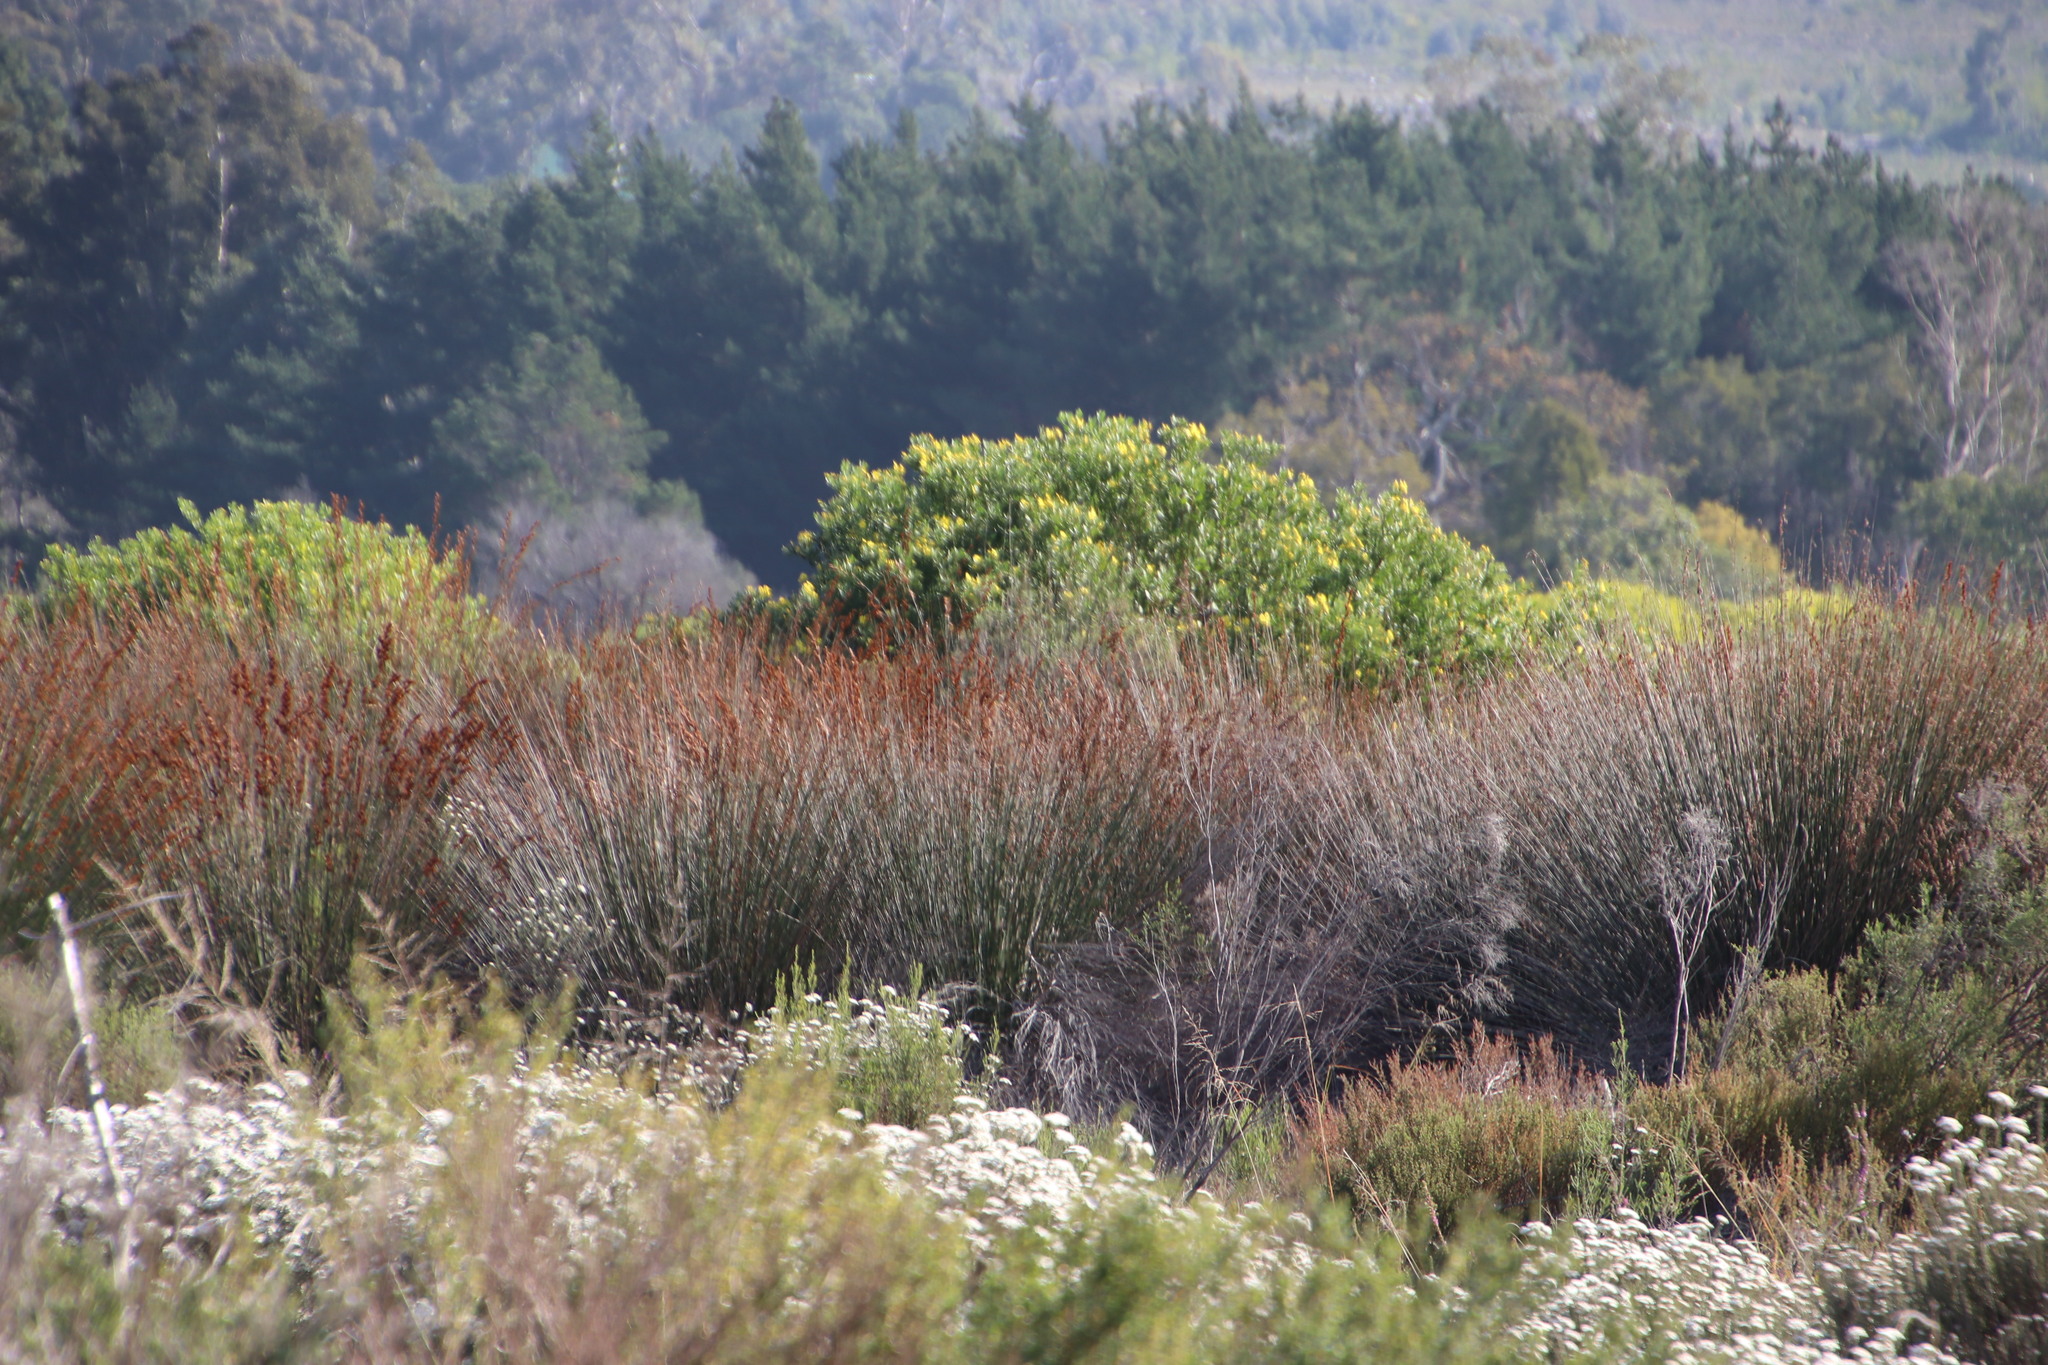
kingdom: Plantae
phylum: Tracheophyta
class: Liliopsida
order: Poales
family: Restionaceae
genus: Thamnochortus
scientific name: Thamnochortus insignis
